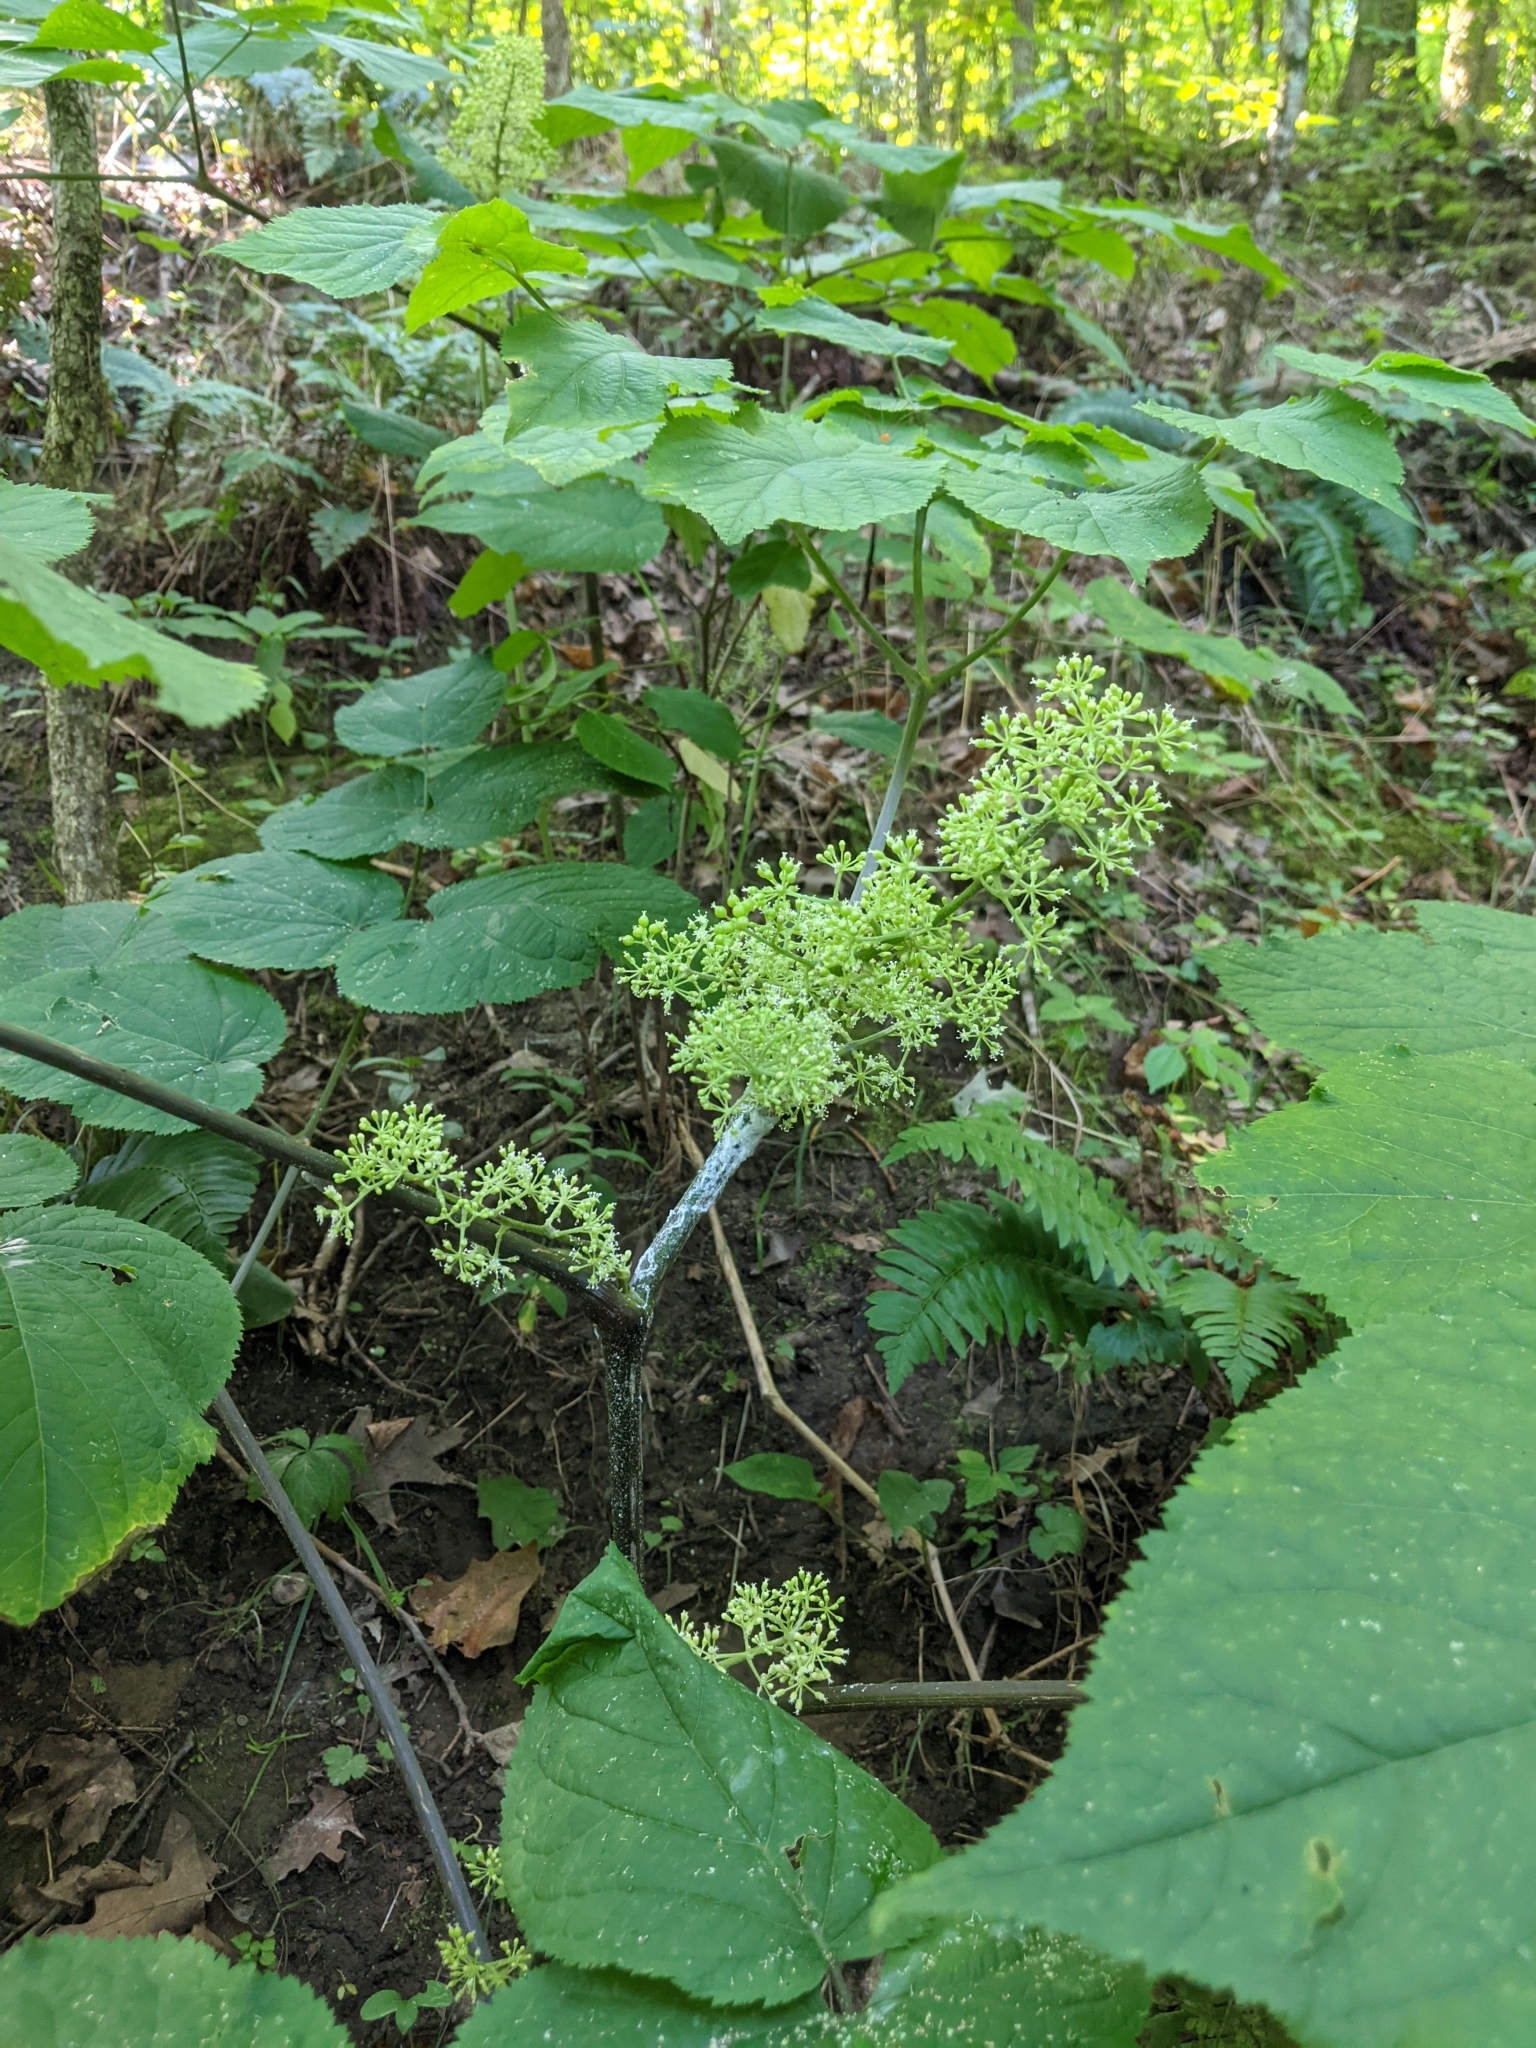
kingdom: Plantae
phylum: Tracheophyta
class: Magnoliopsida
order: Apiales
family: Araliaceae
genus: Aralia
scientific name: Aralia racemosa
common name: American-spikenard
